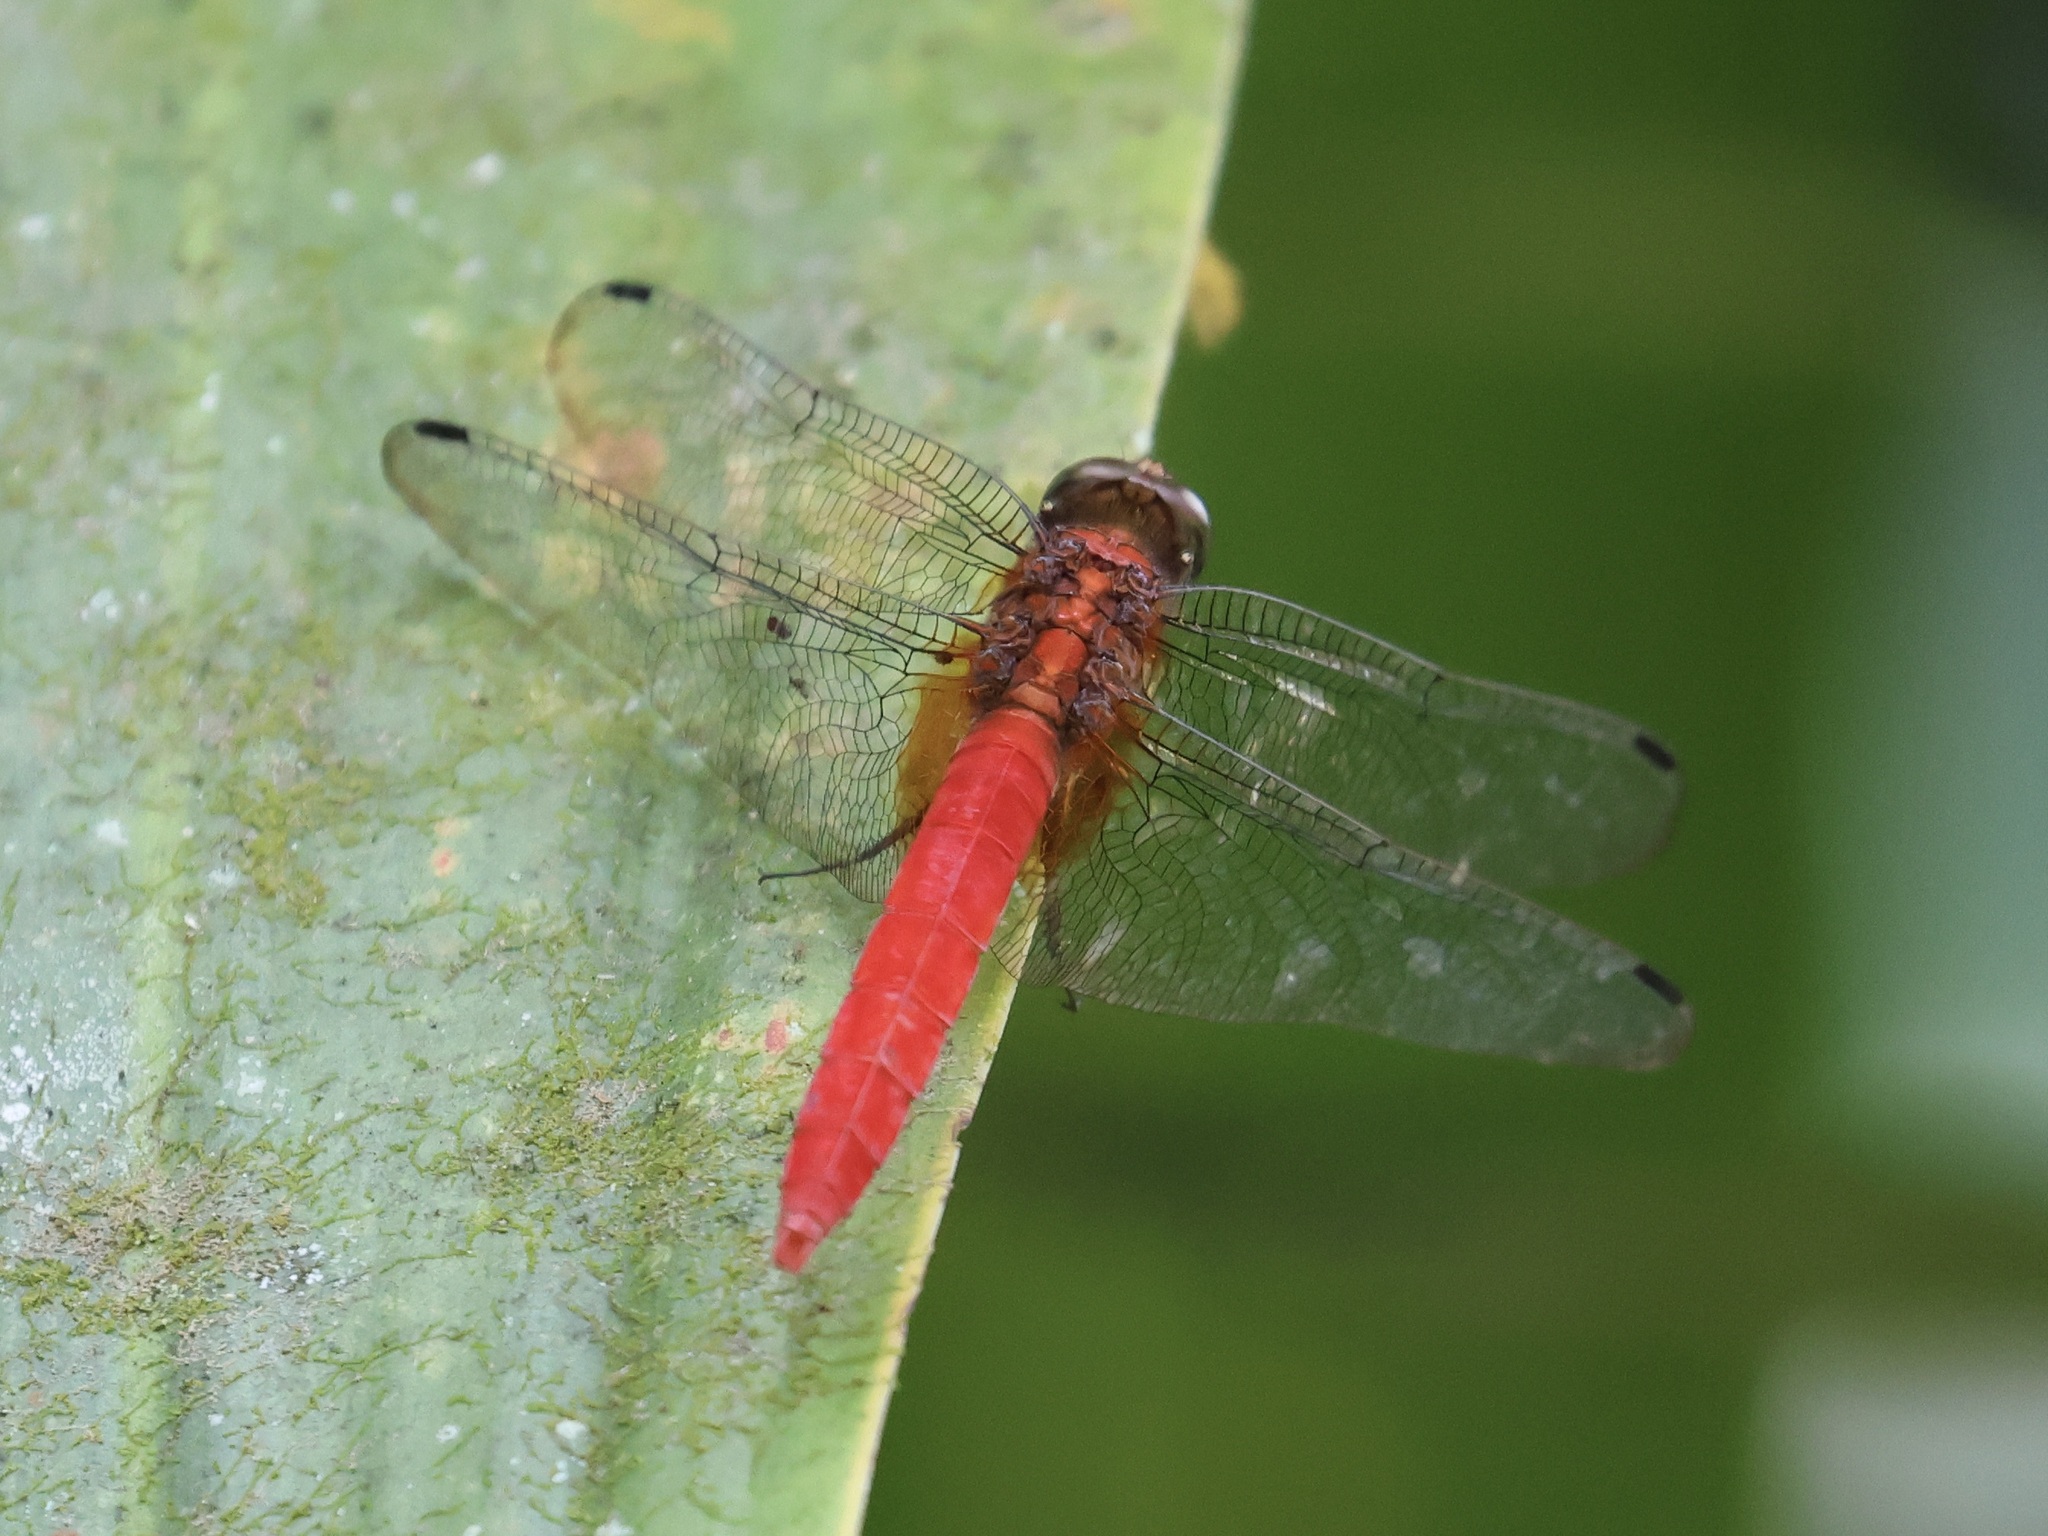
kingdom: Animalia
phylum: Arthropoda
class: Insecta
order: Odonata
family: Libellulidae
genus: Orthetrum
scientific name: Orthetrum testaceum
